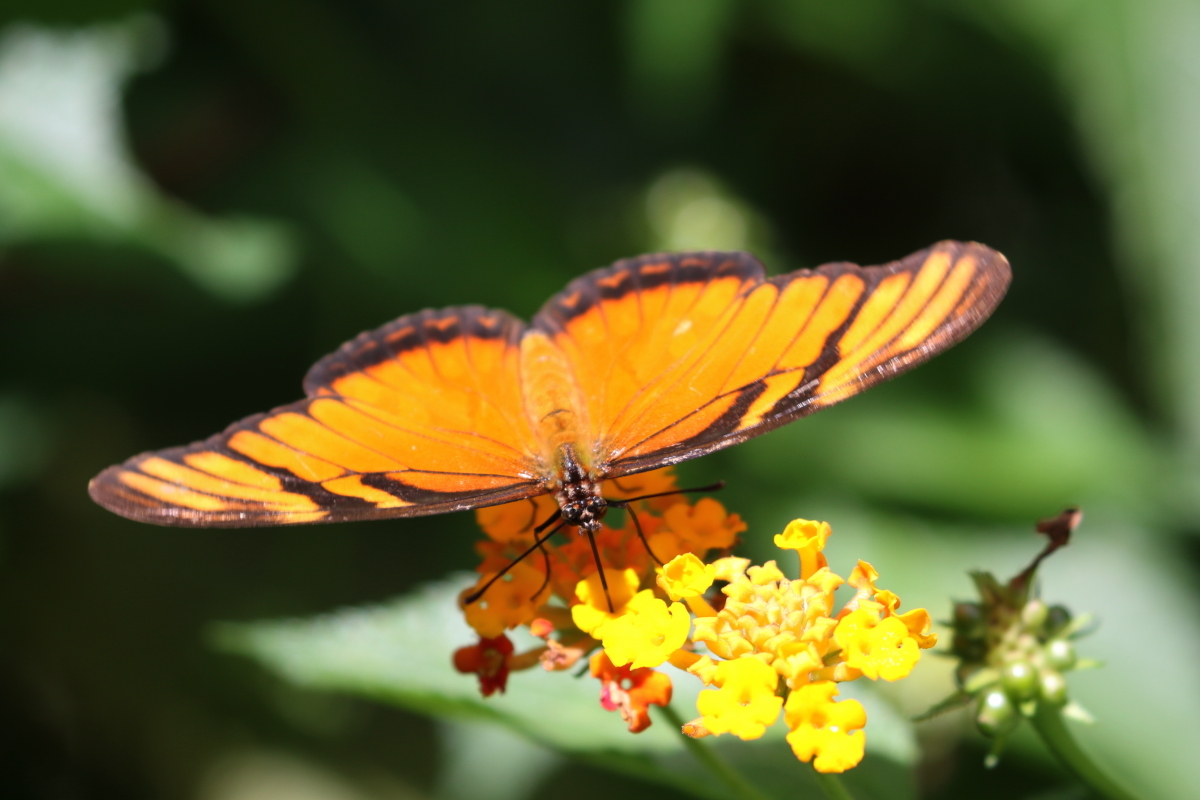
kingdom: Animalia
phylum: Arthropoda
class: Insecta
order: Lepidoptera
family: Nymphalidae
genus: Dione
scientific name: Dione juno
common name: Juno silverspot
